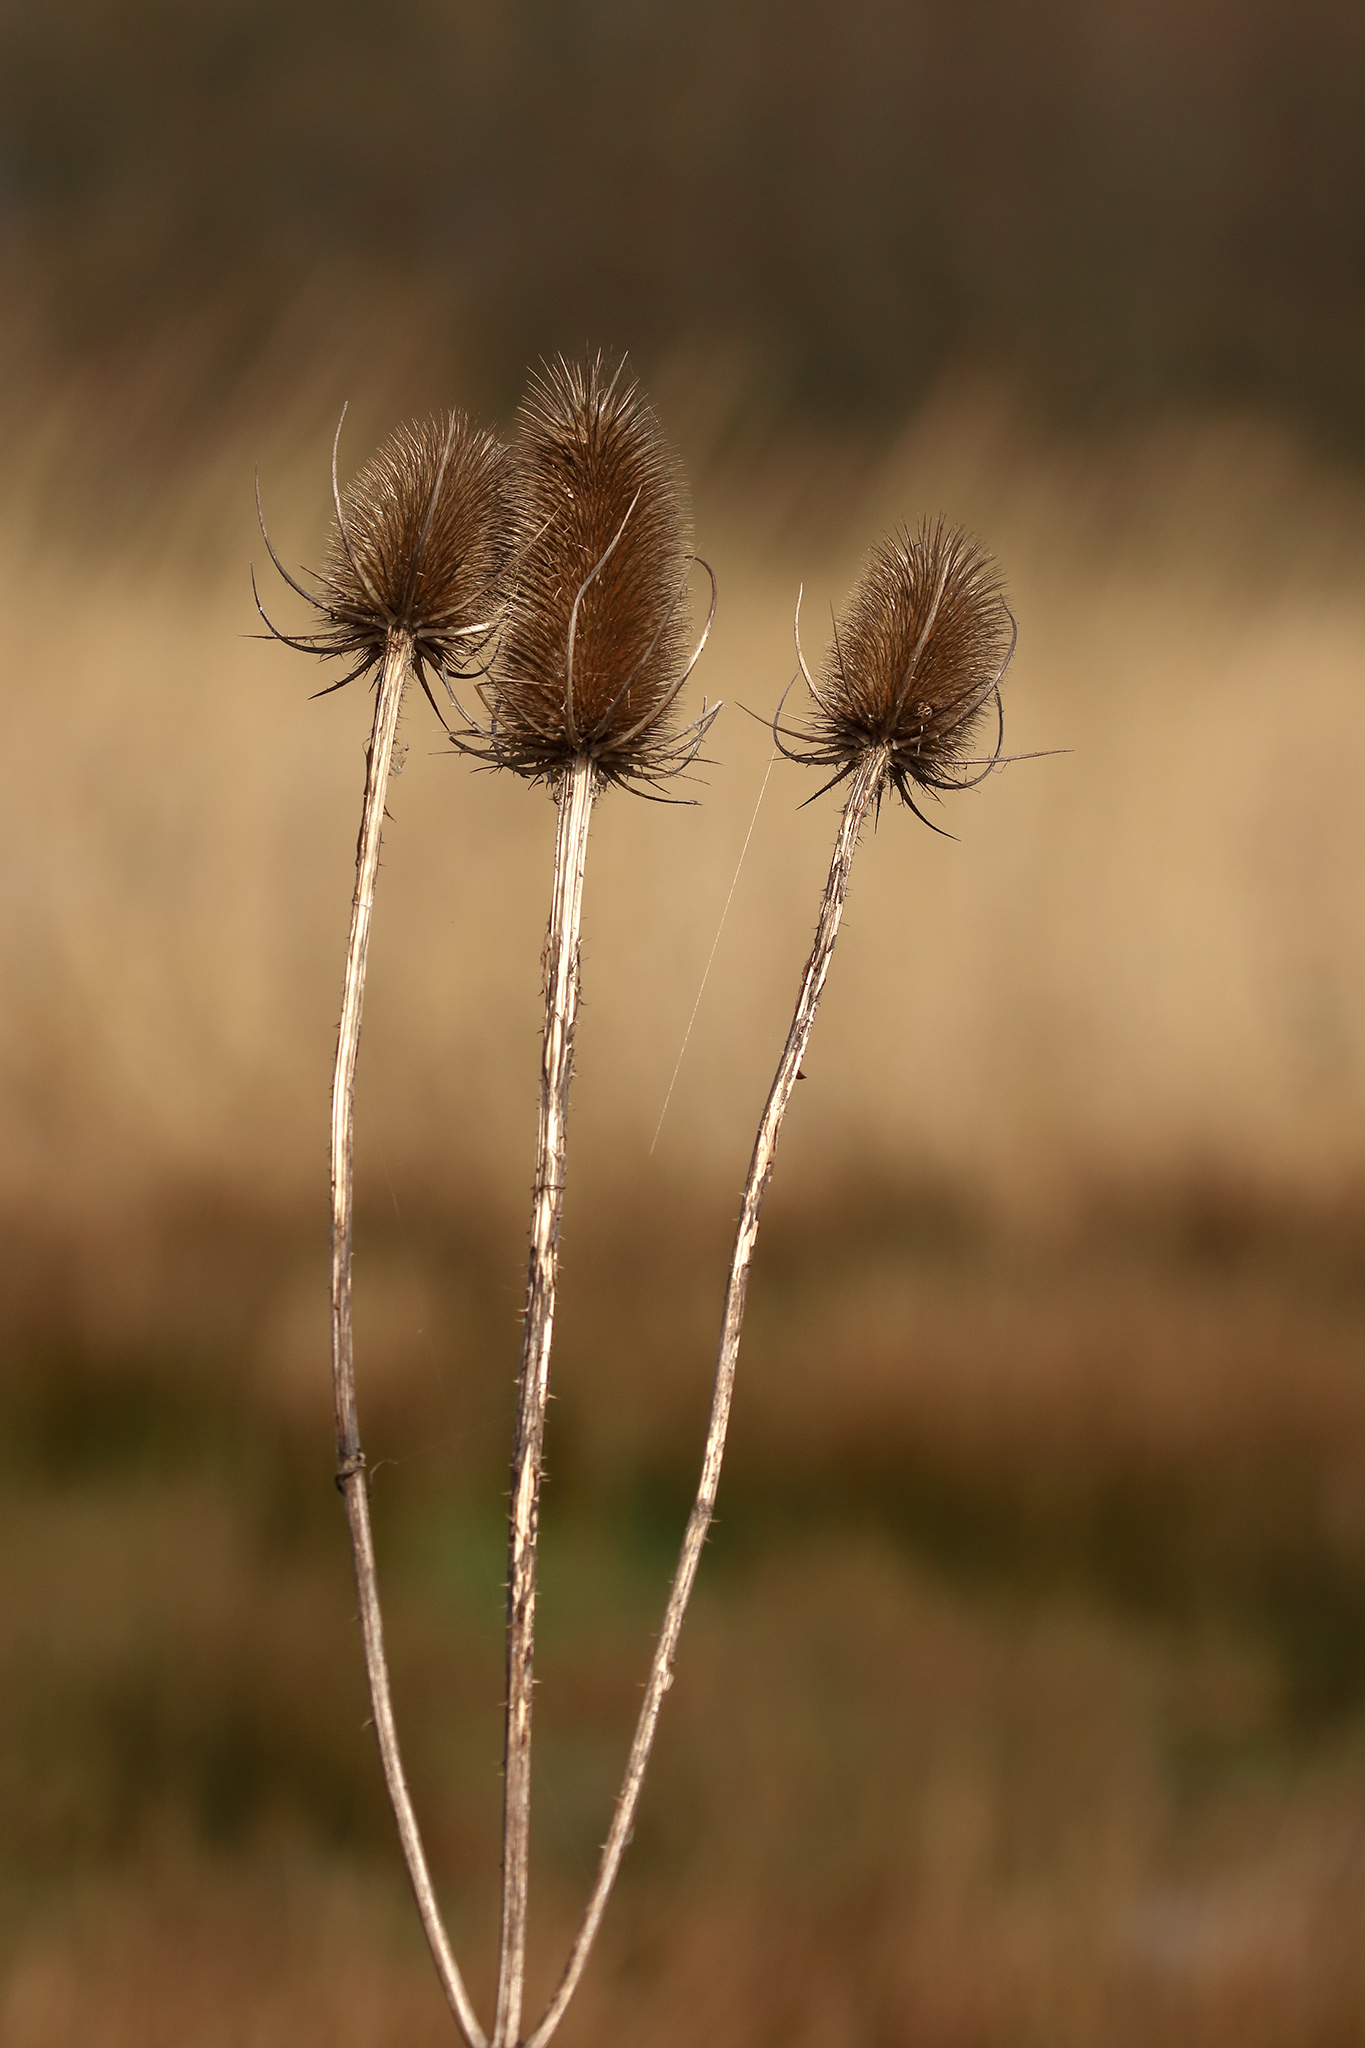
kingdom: Plantae
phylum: Tracheophyta
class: Magnoliopsida
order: Dipsacales
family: Caprifoliaceae
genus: Dipsacus
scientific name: Dipsacus fullonum
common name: Teasel
